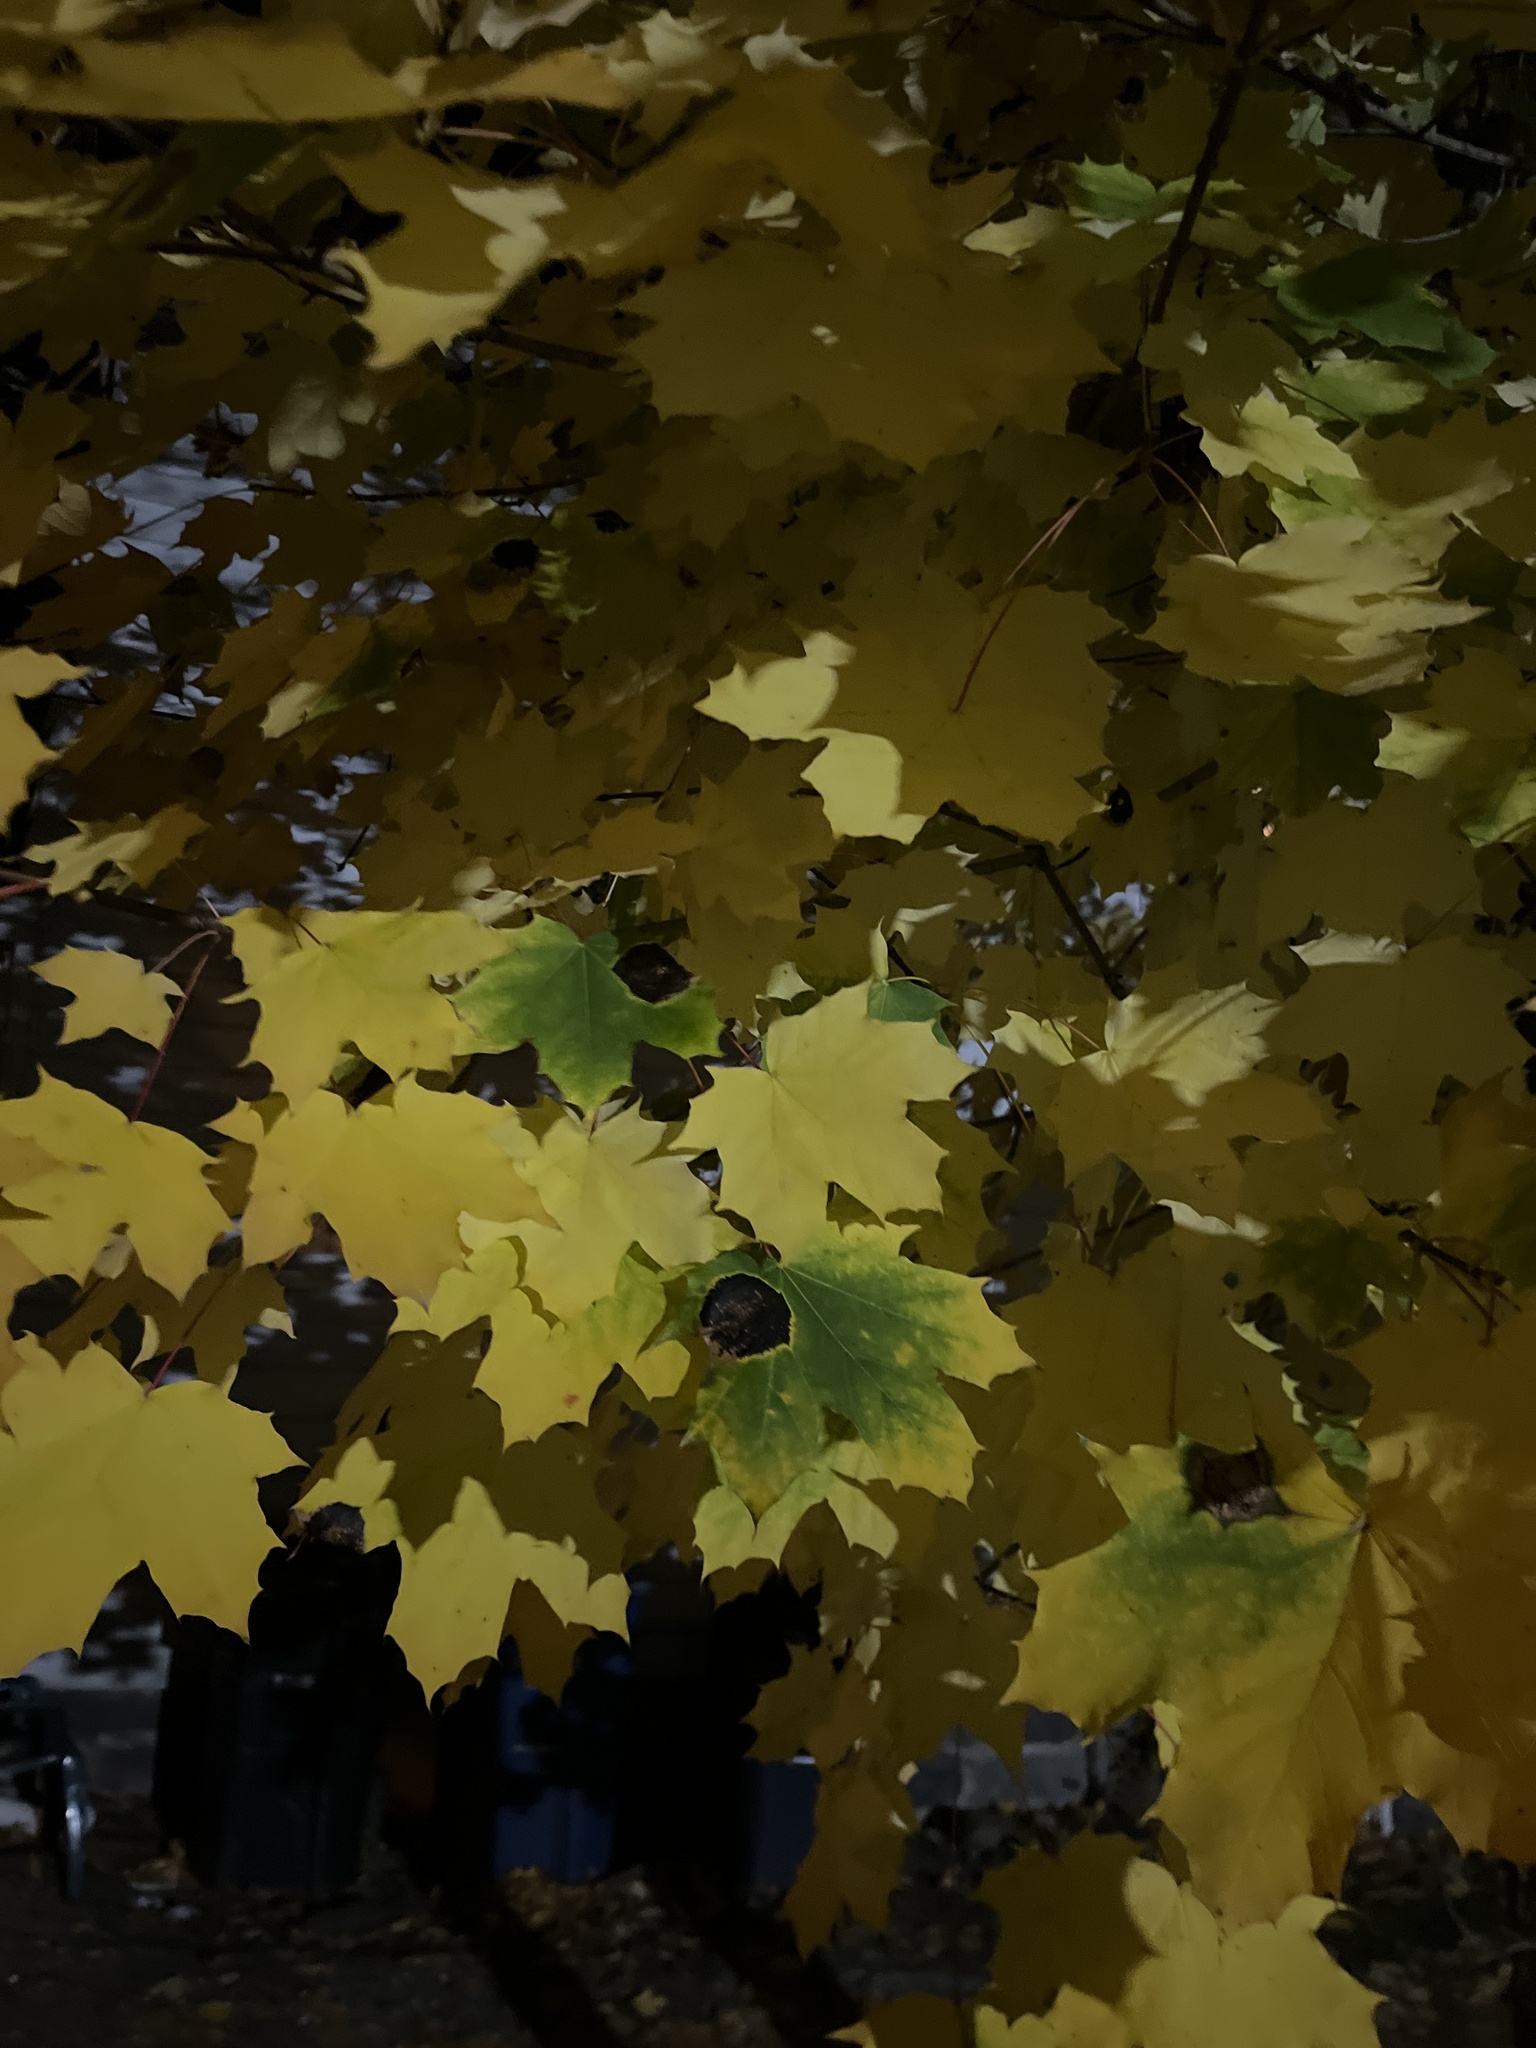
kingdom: Plantae
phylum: Tracheophyta
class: Magnoliopsida
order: Sapindales
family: Sapindaceae
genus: Acer
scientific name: Acer platanoides
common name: Norway maple
